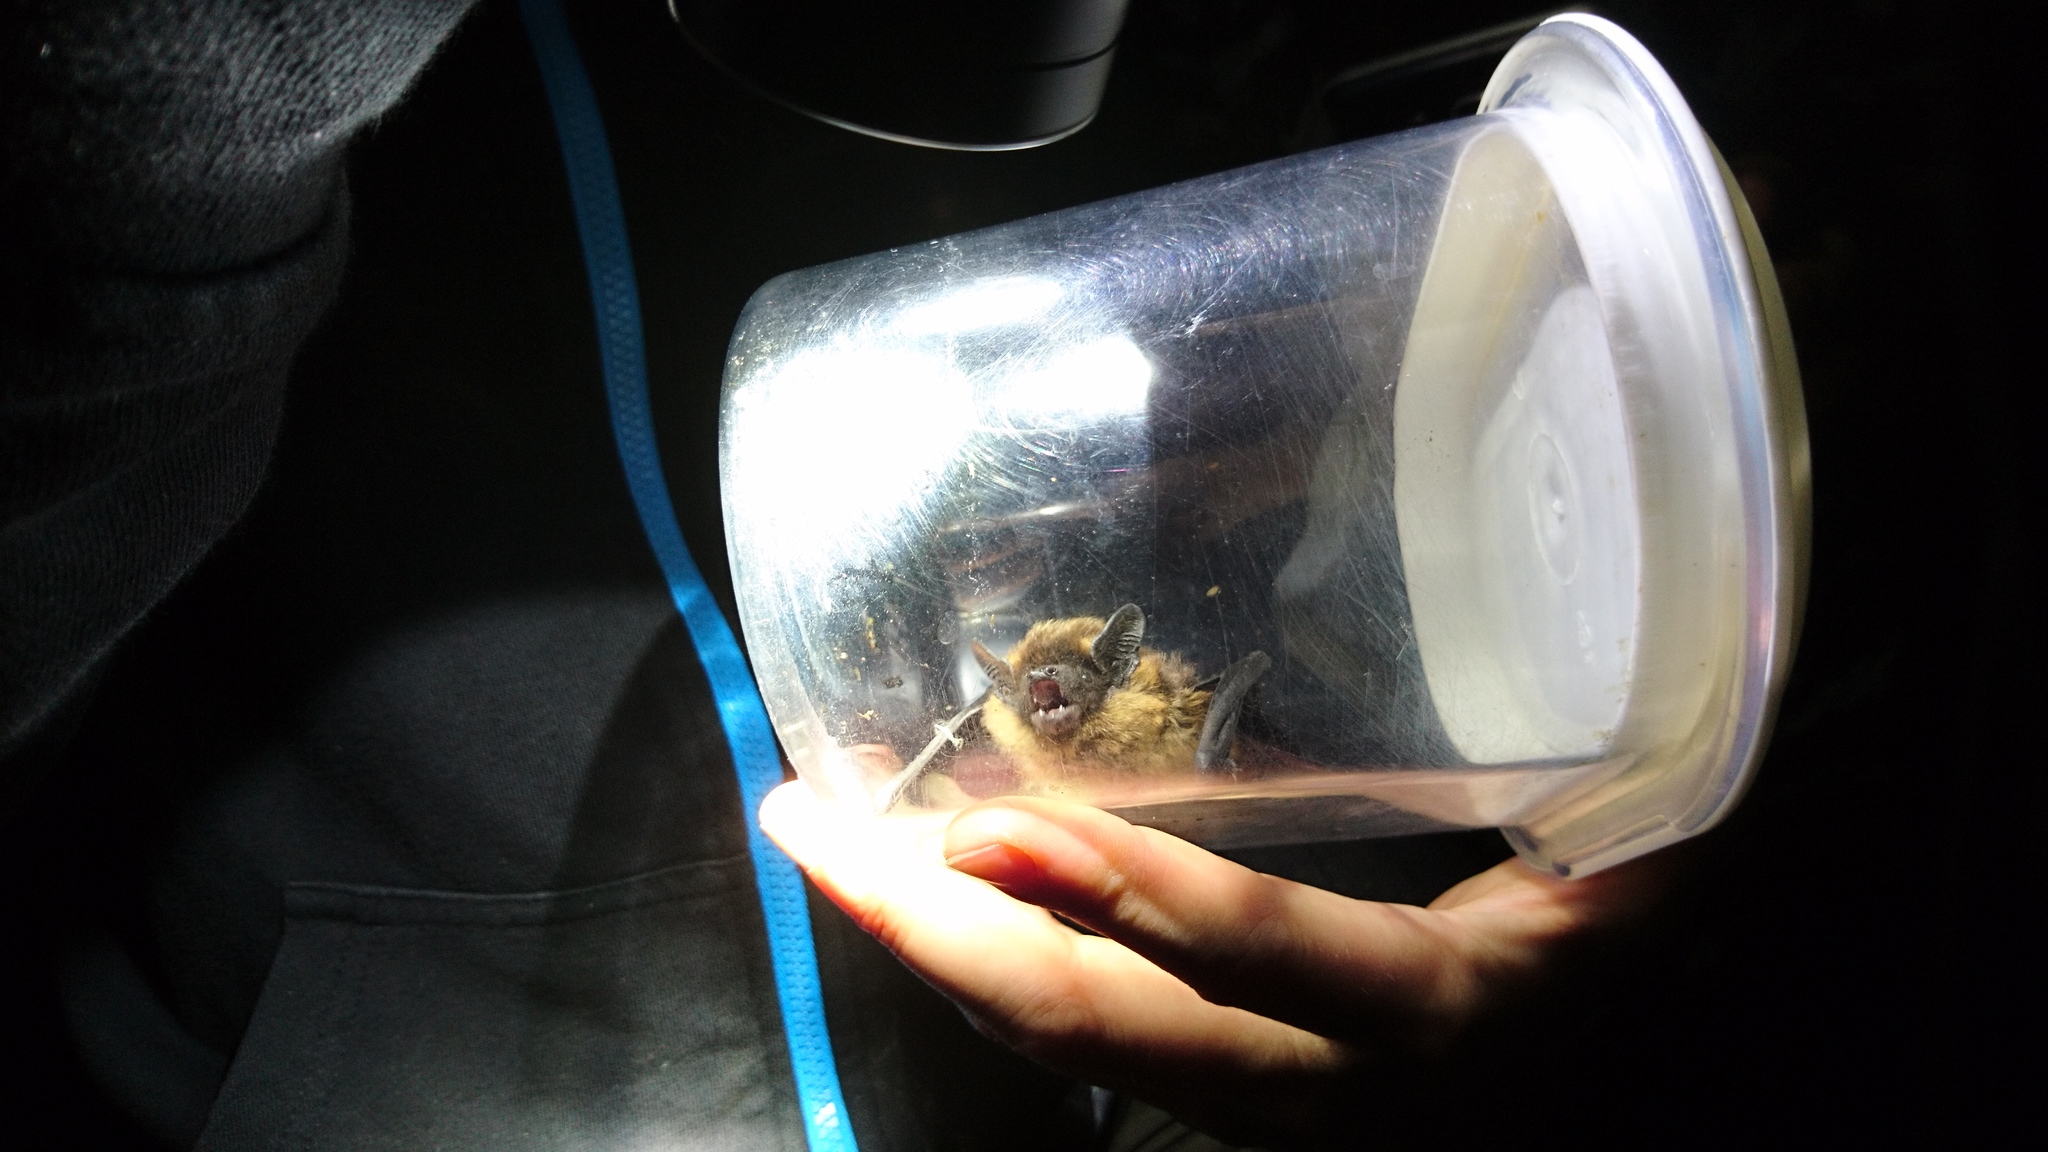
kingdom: Animalia
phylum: Chordata
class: Mammalia
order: Chiroptera
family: Vespertilionidae
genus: Eptesicus
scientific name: Eptesicus nilssonii
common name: Northern bat
